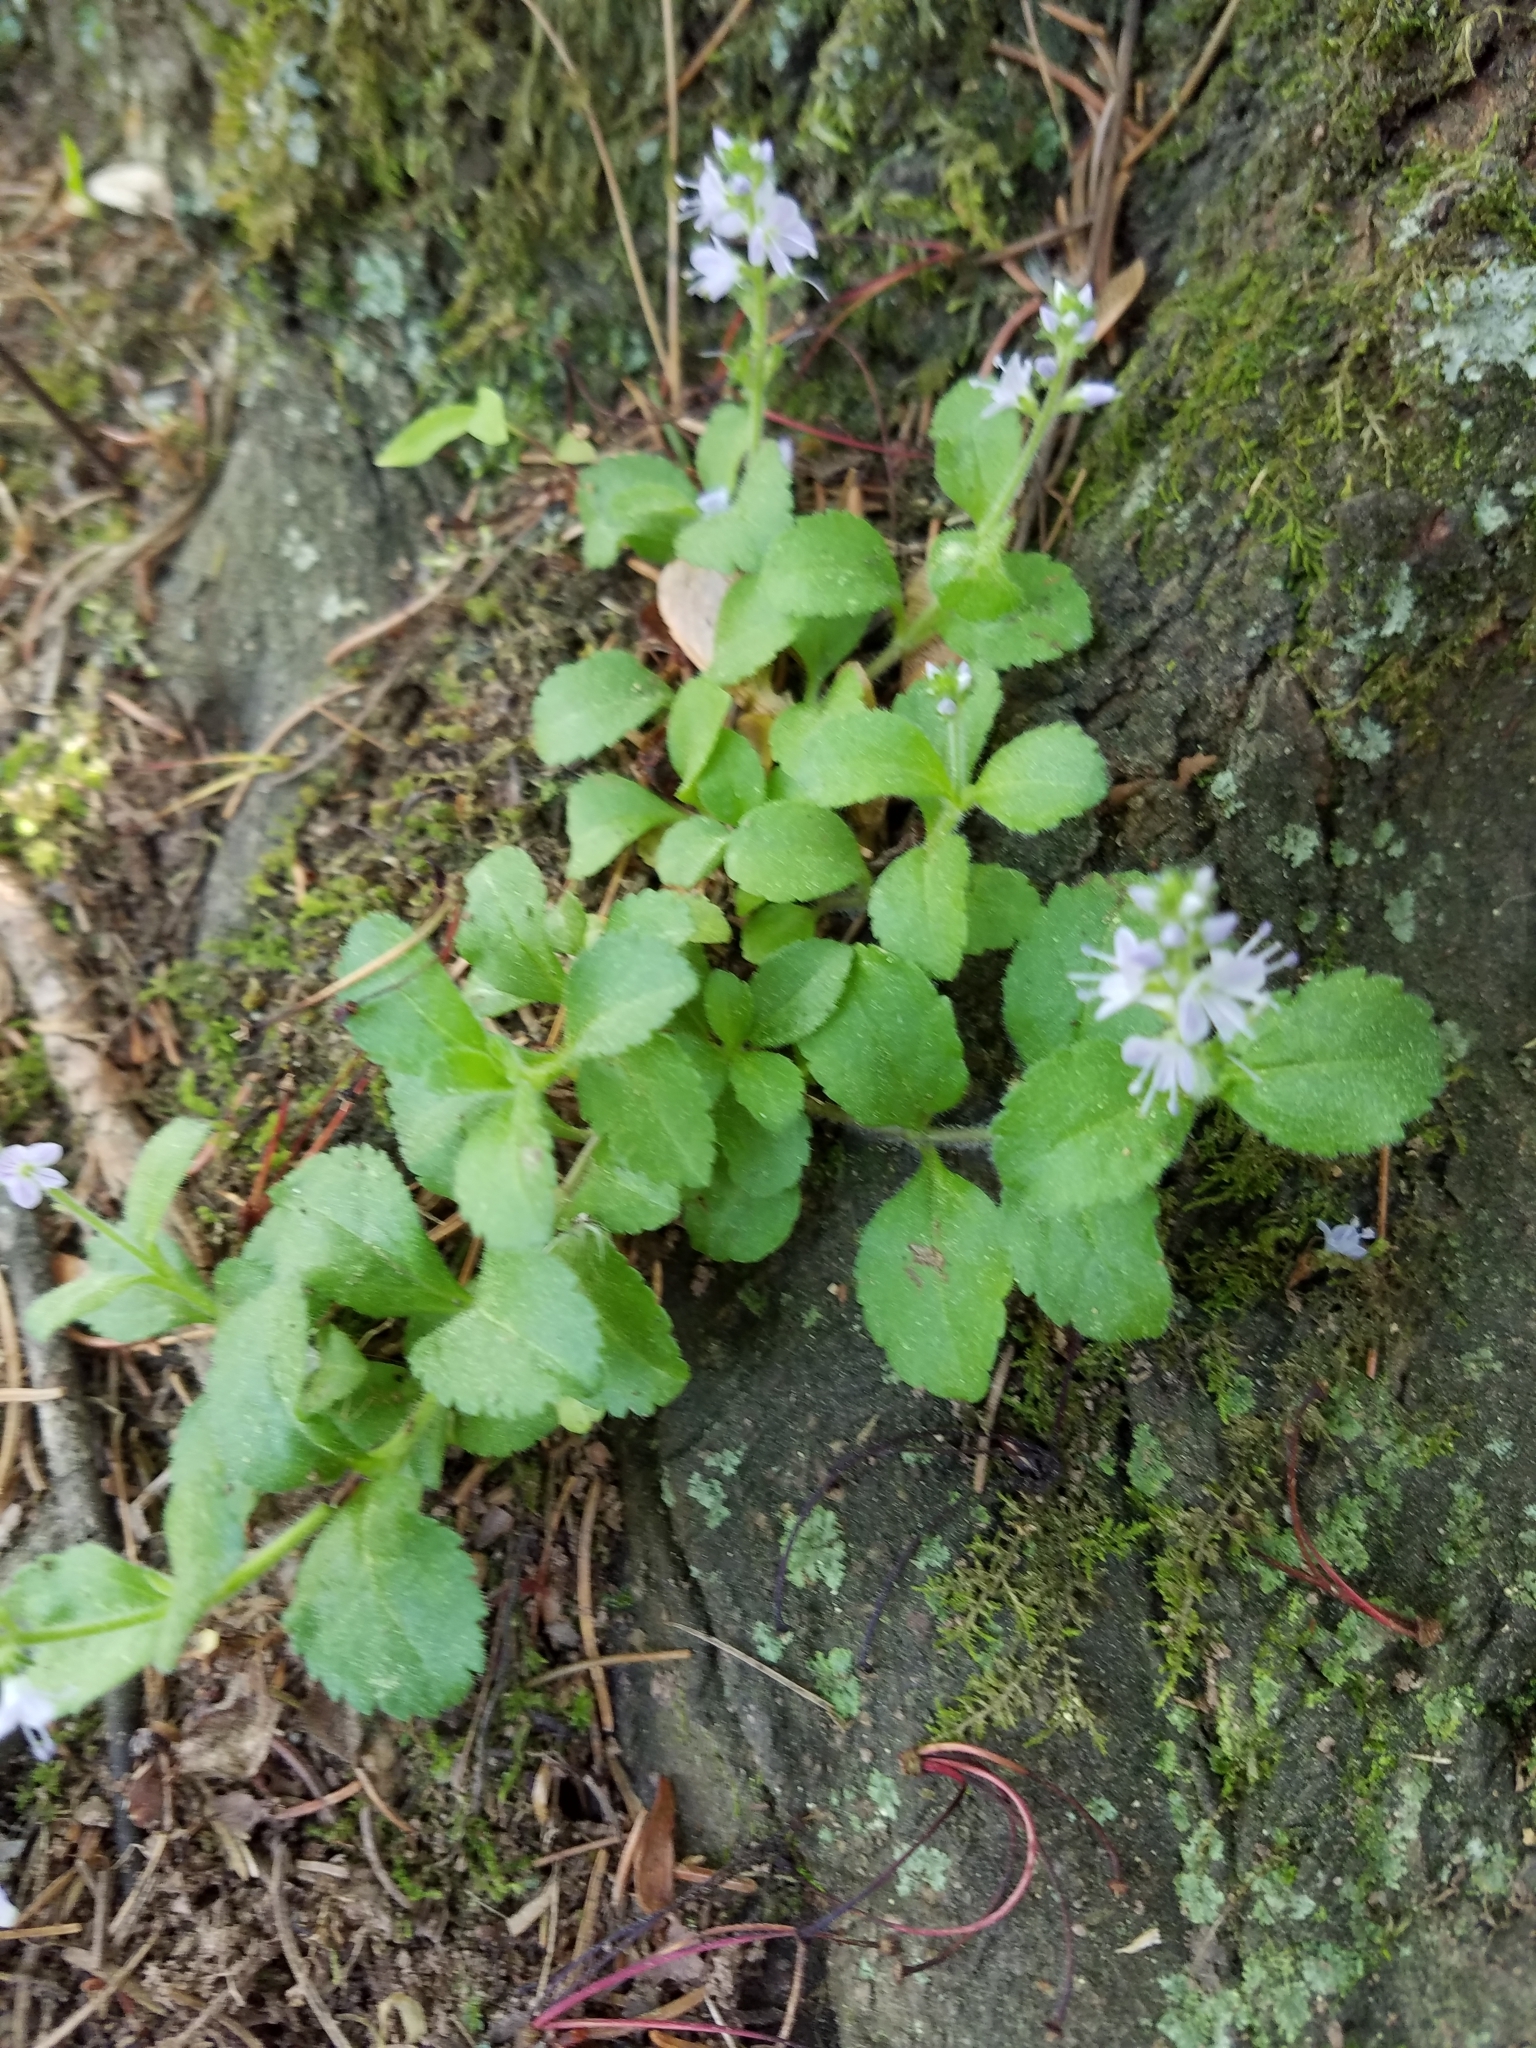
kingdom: Plantae
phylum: Tracheophyta
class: Magnoliopsida
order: Lamiales
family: Plantaginaceae
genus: Veronica
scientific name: Veronica officinalis
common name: Common speedwell
